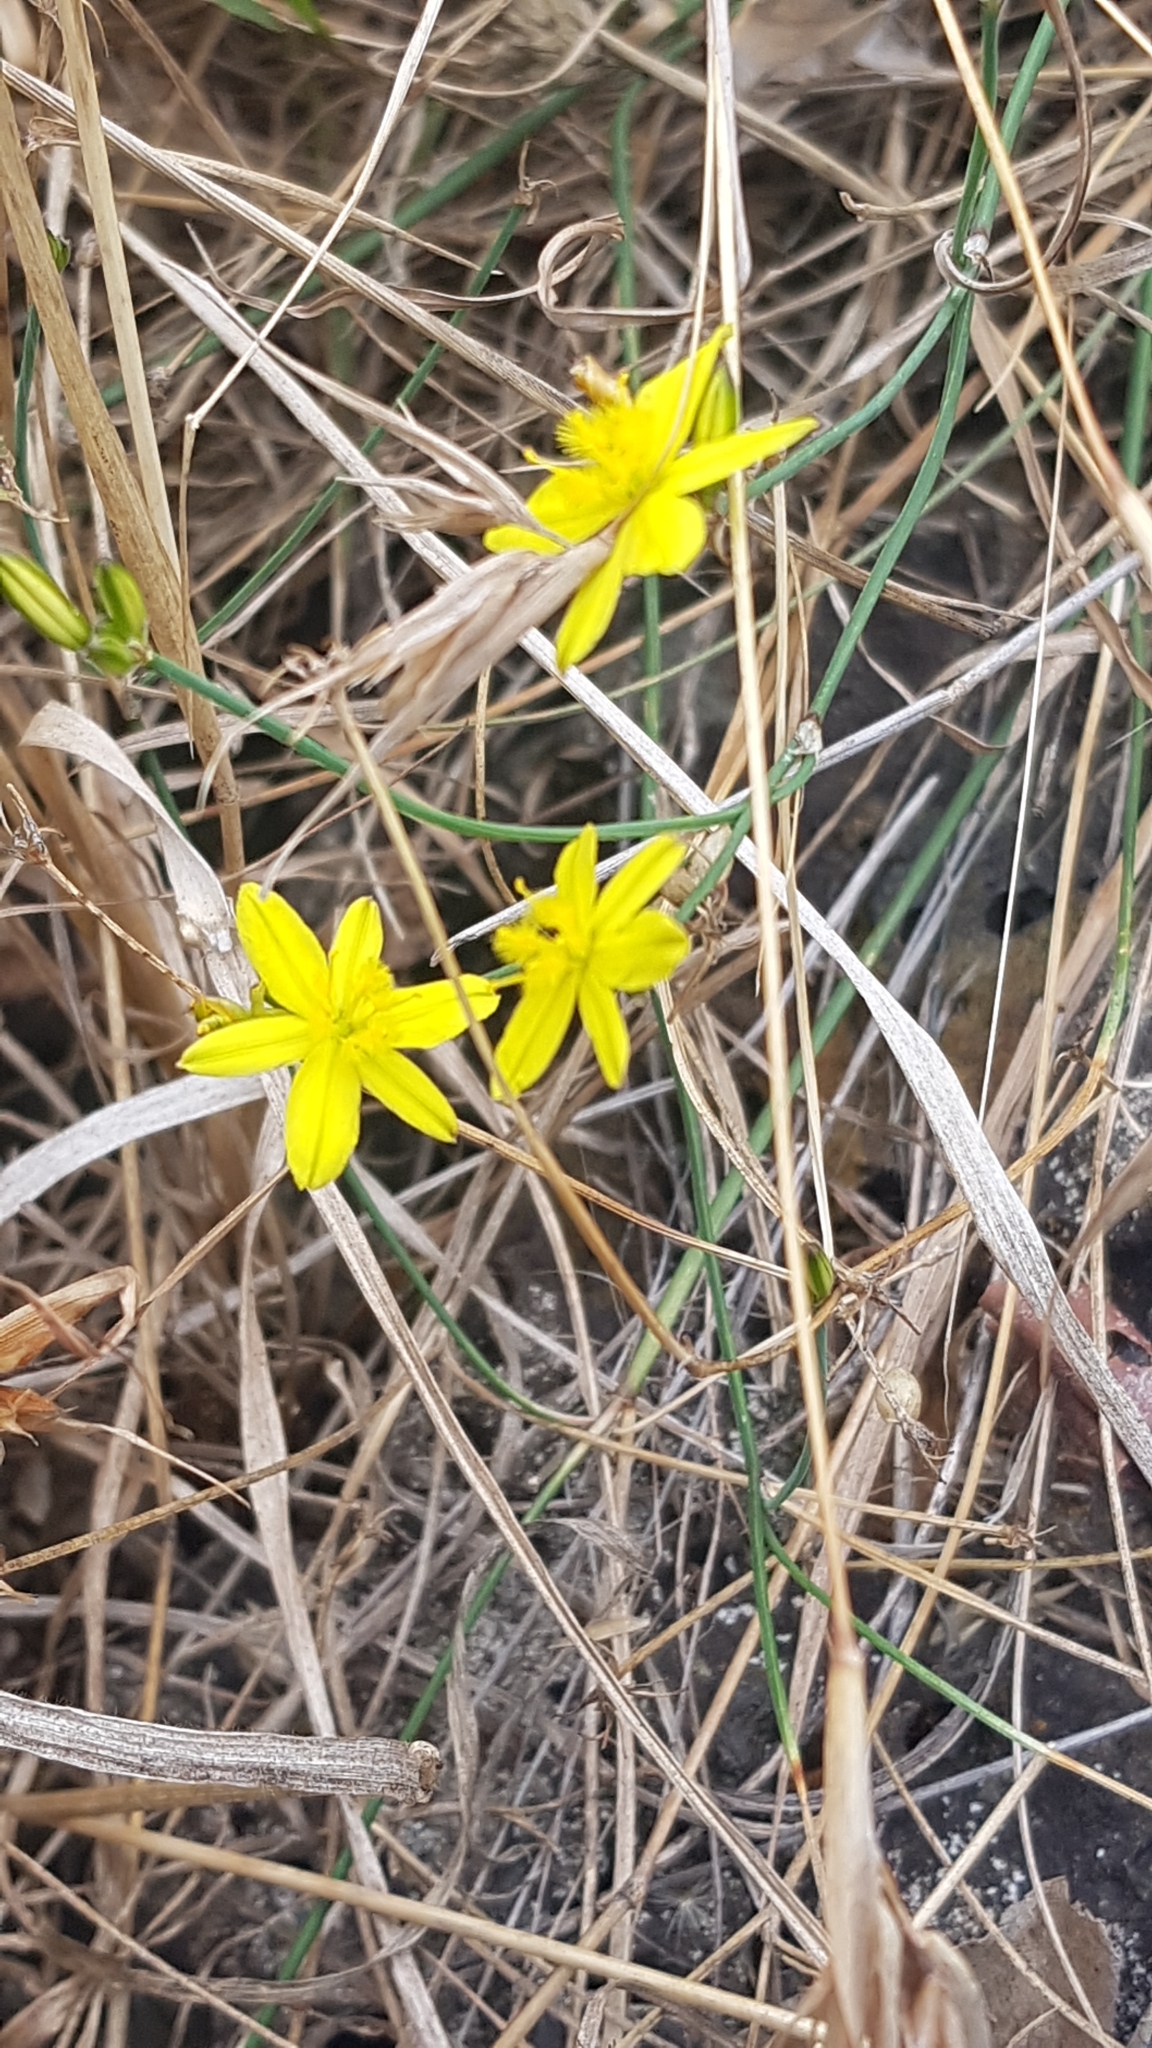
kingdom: Plantae
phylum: Tracheophyta
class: Liliopsida
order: Asparagales
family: Asphodelaceae
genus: Tricoryne
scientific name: Tricoryne elatior
